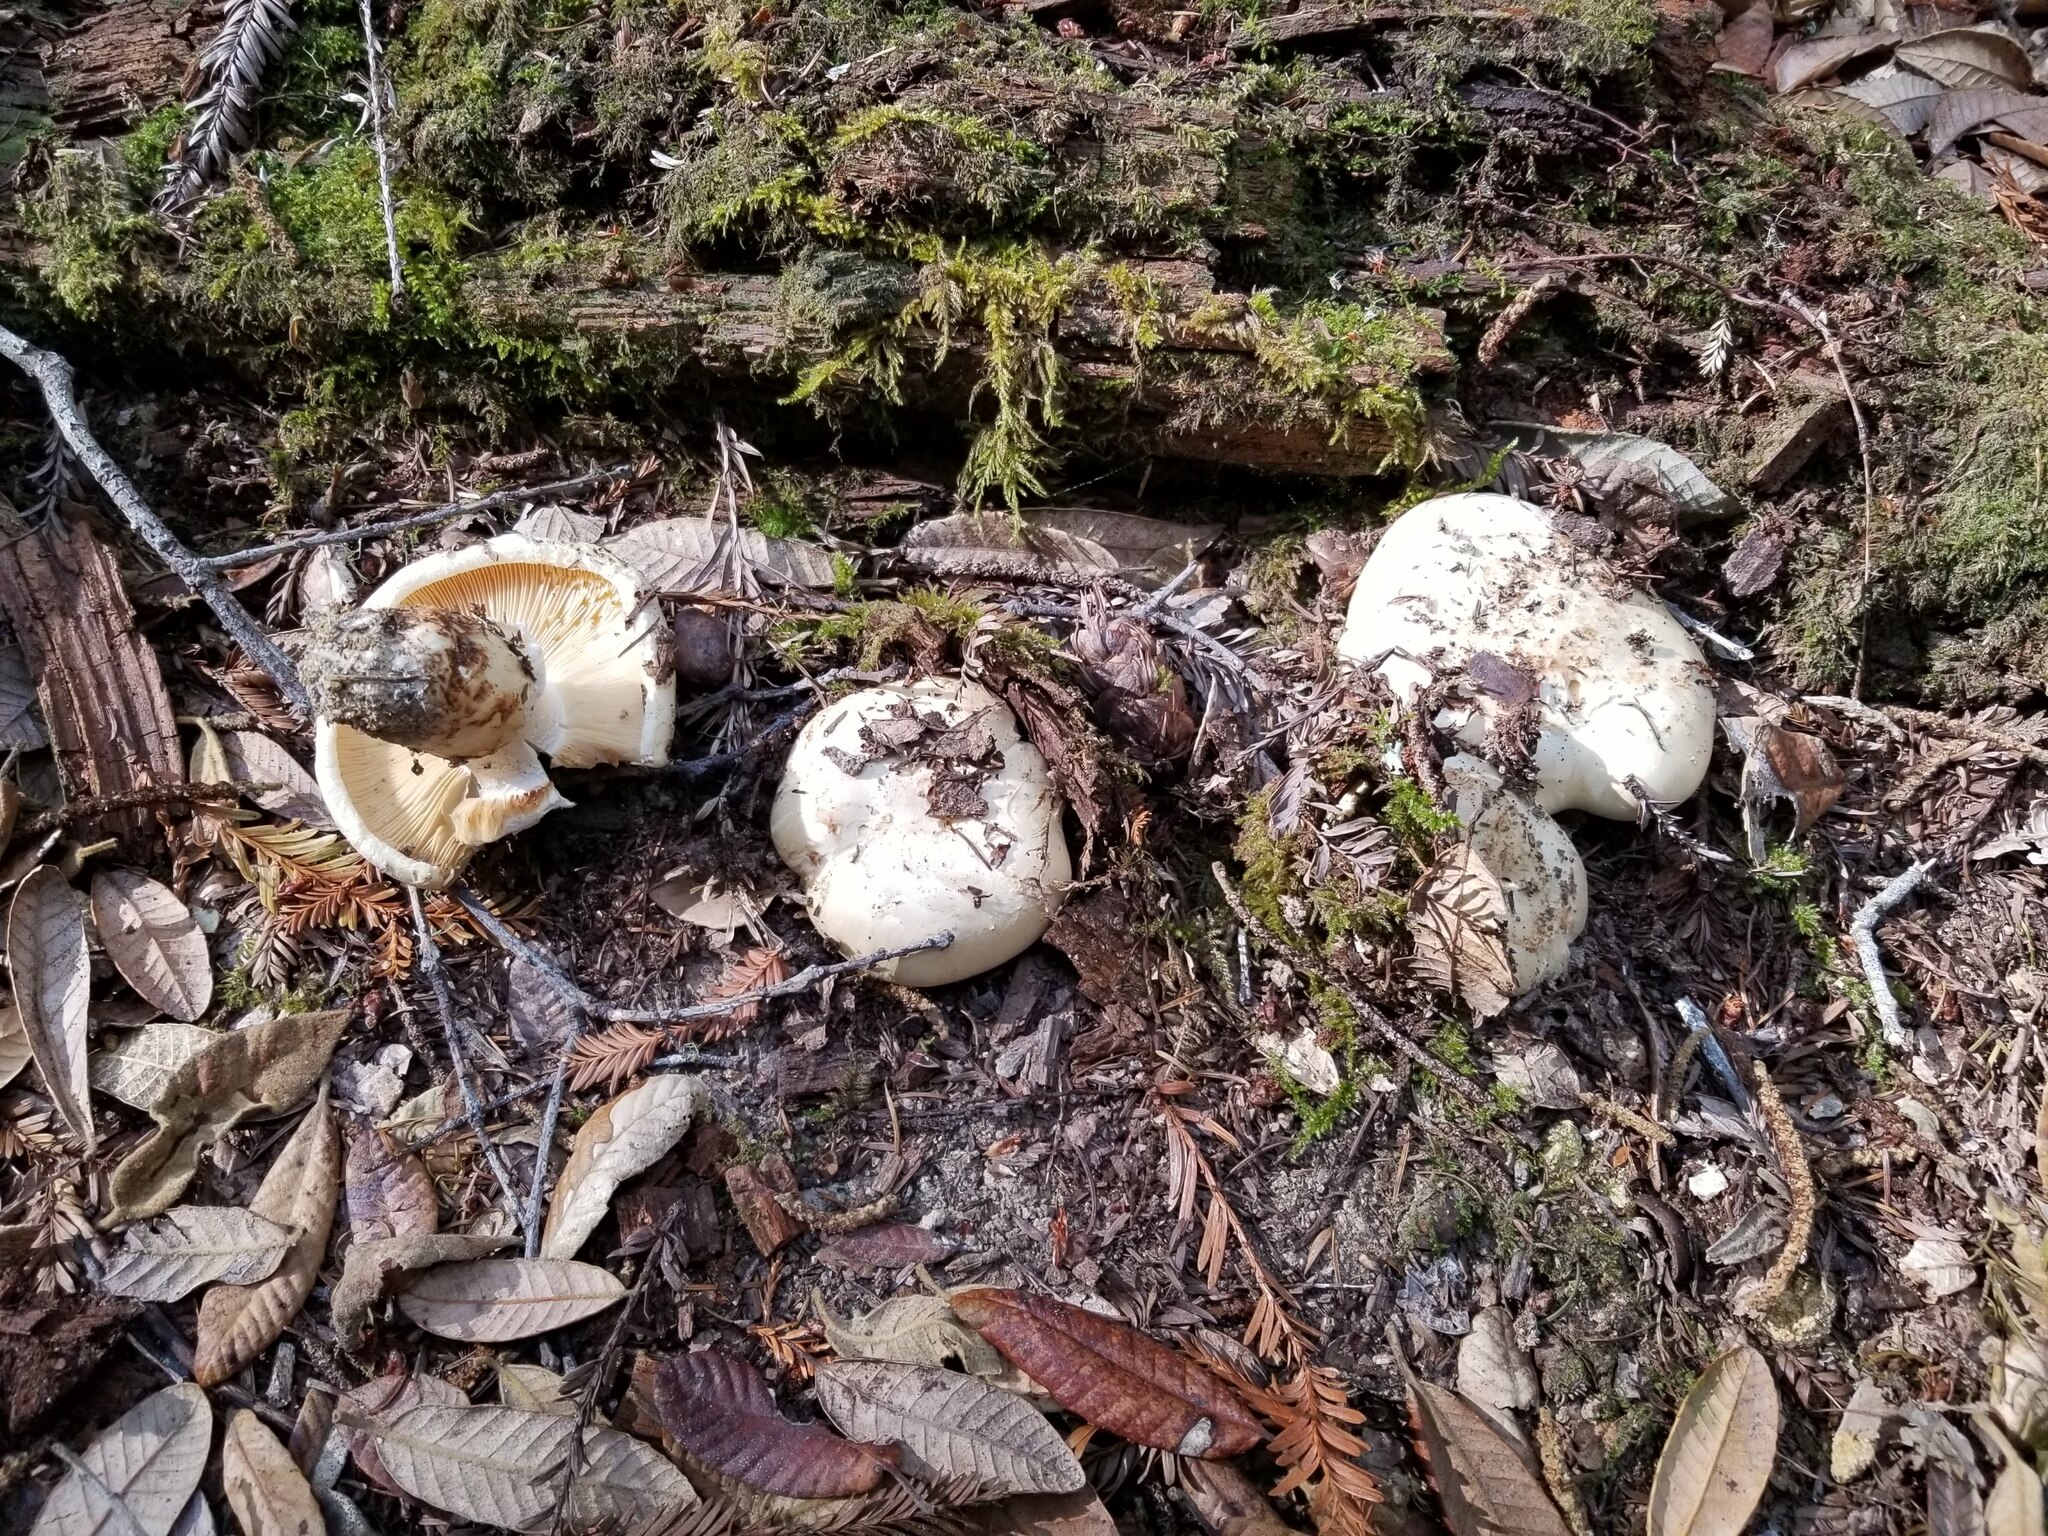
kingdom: Fungi
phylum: Basidiomycota
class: Agaricomycetes
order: Agaricales
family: Tricholomataceae
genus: Tricholoma
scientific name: Tricholoma murrillianum
